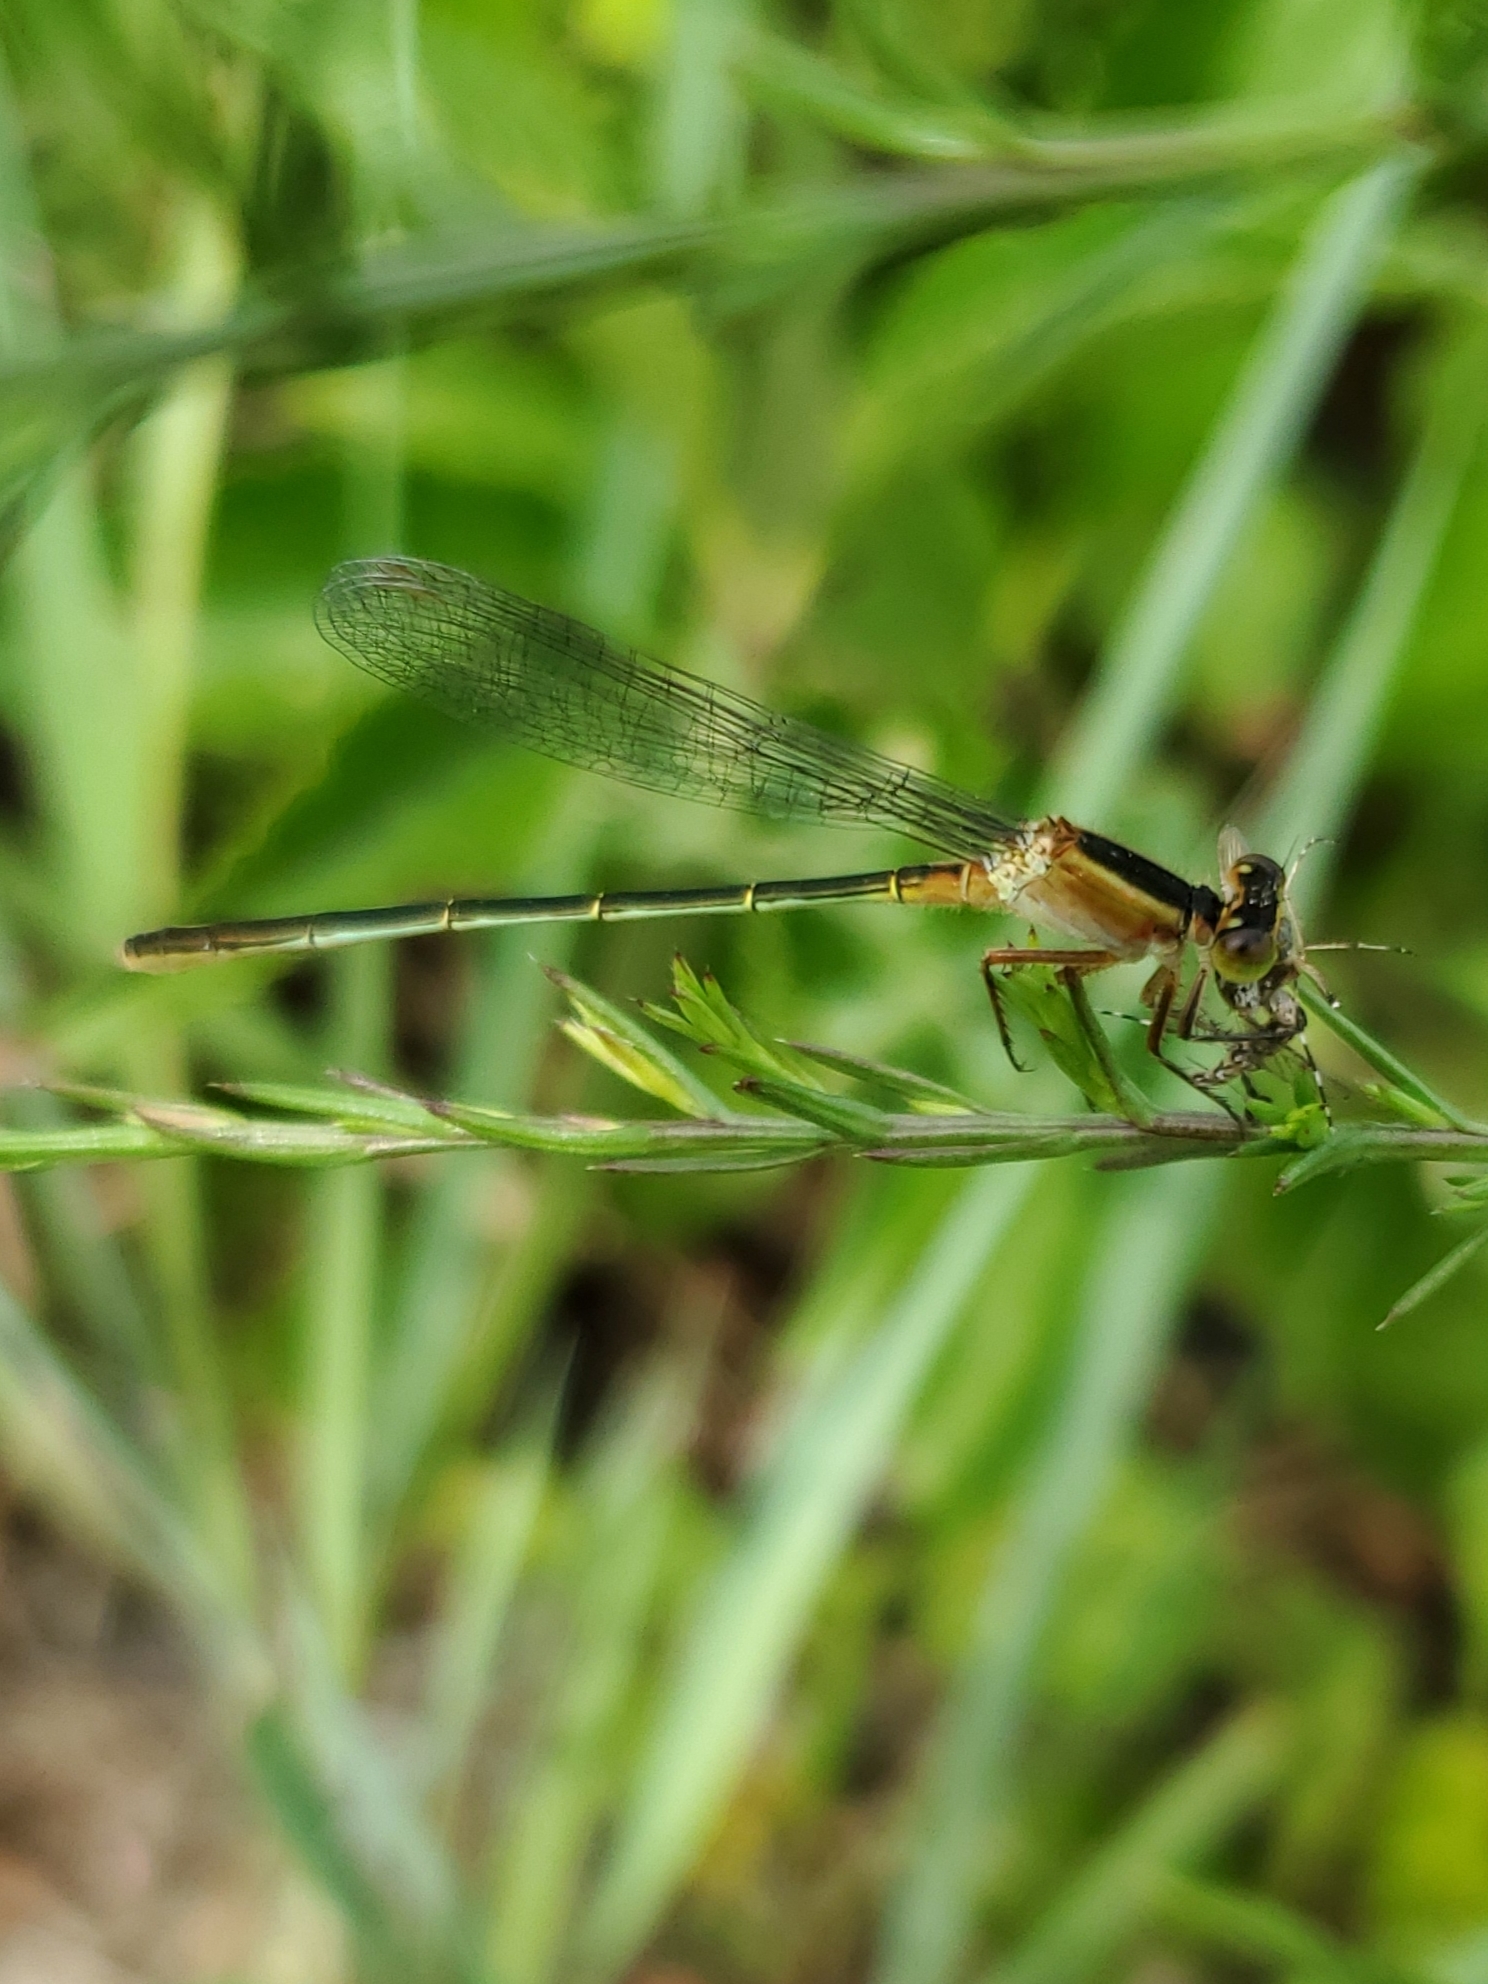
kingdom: Animalia
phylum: Arthropoda
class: Insecta
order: Odonata
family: Coenagrionidae
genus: Ischnura
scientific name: Ischnura ramburii
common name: Rambur's forktail
